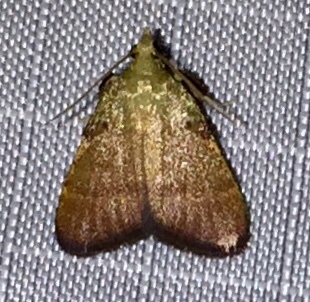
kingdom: Animalia
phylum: Arthropoda
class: Insecta
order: Lepidoptera
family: Pyralidae
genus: Condylolomia
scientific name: Condylolomia participialis
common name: Drab condylolomia moth
